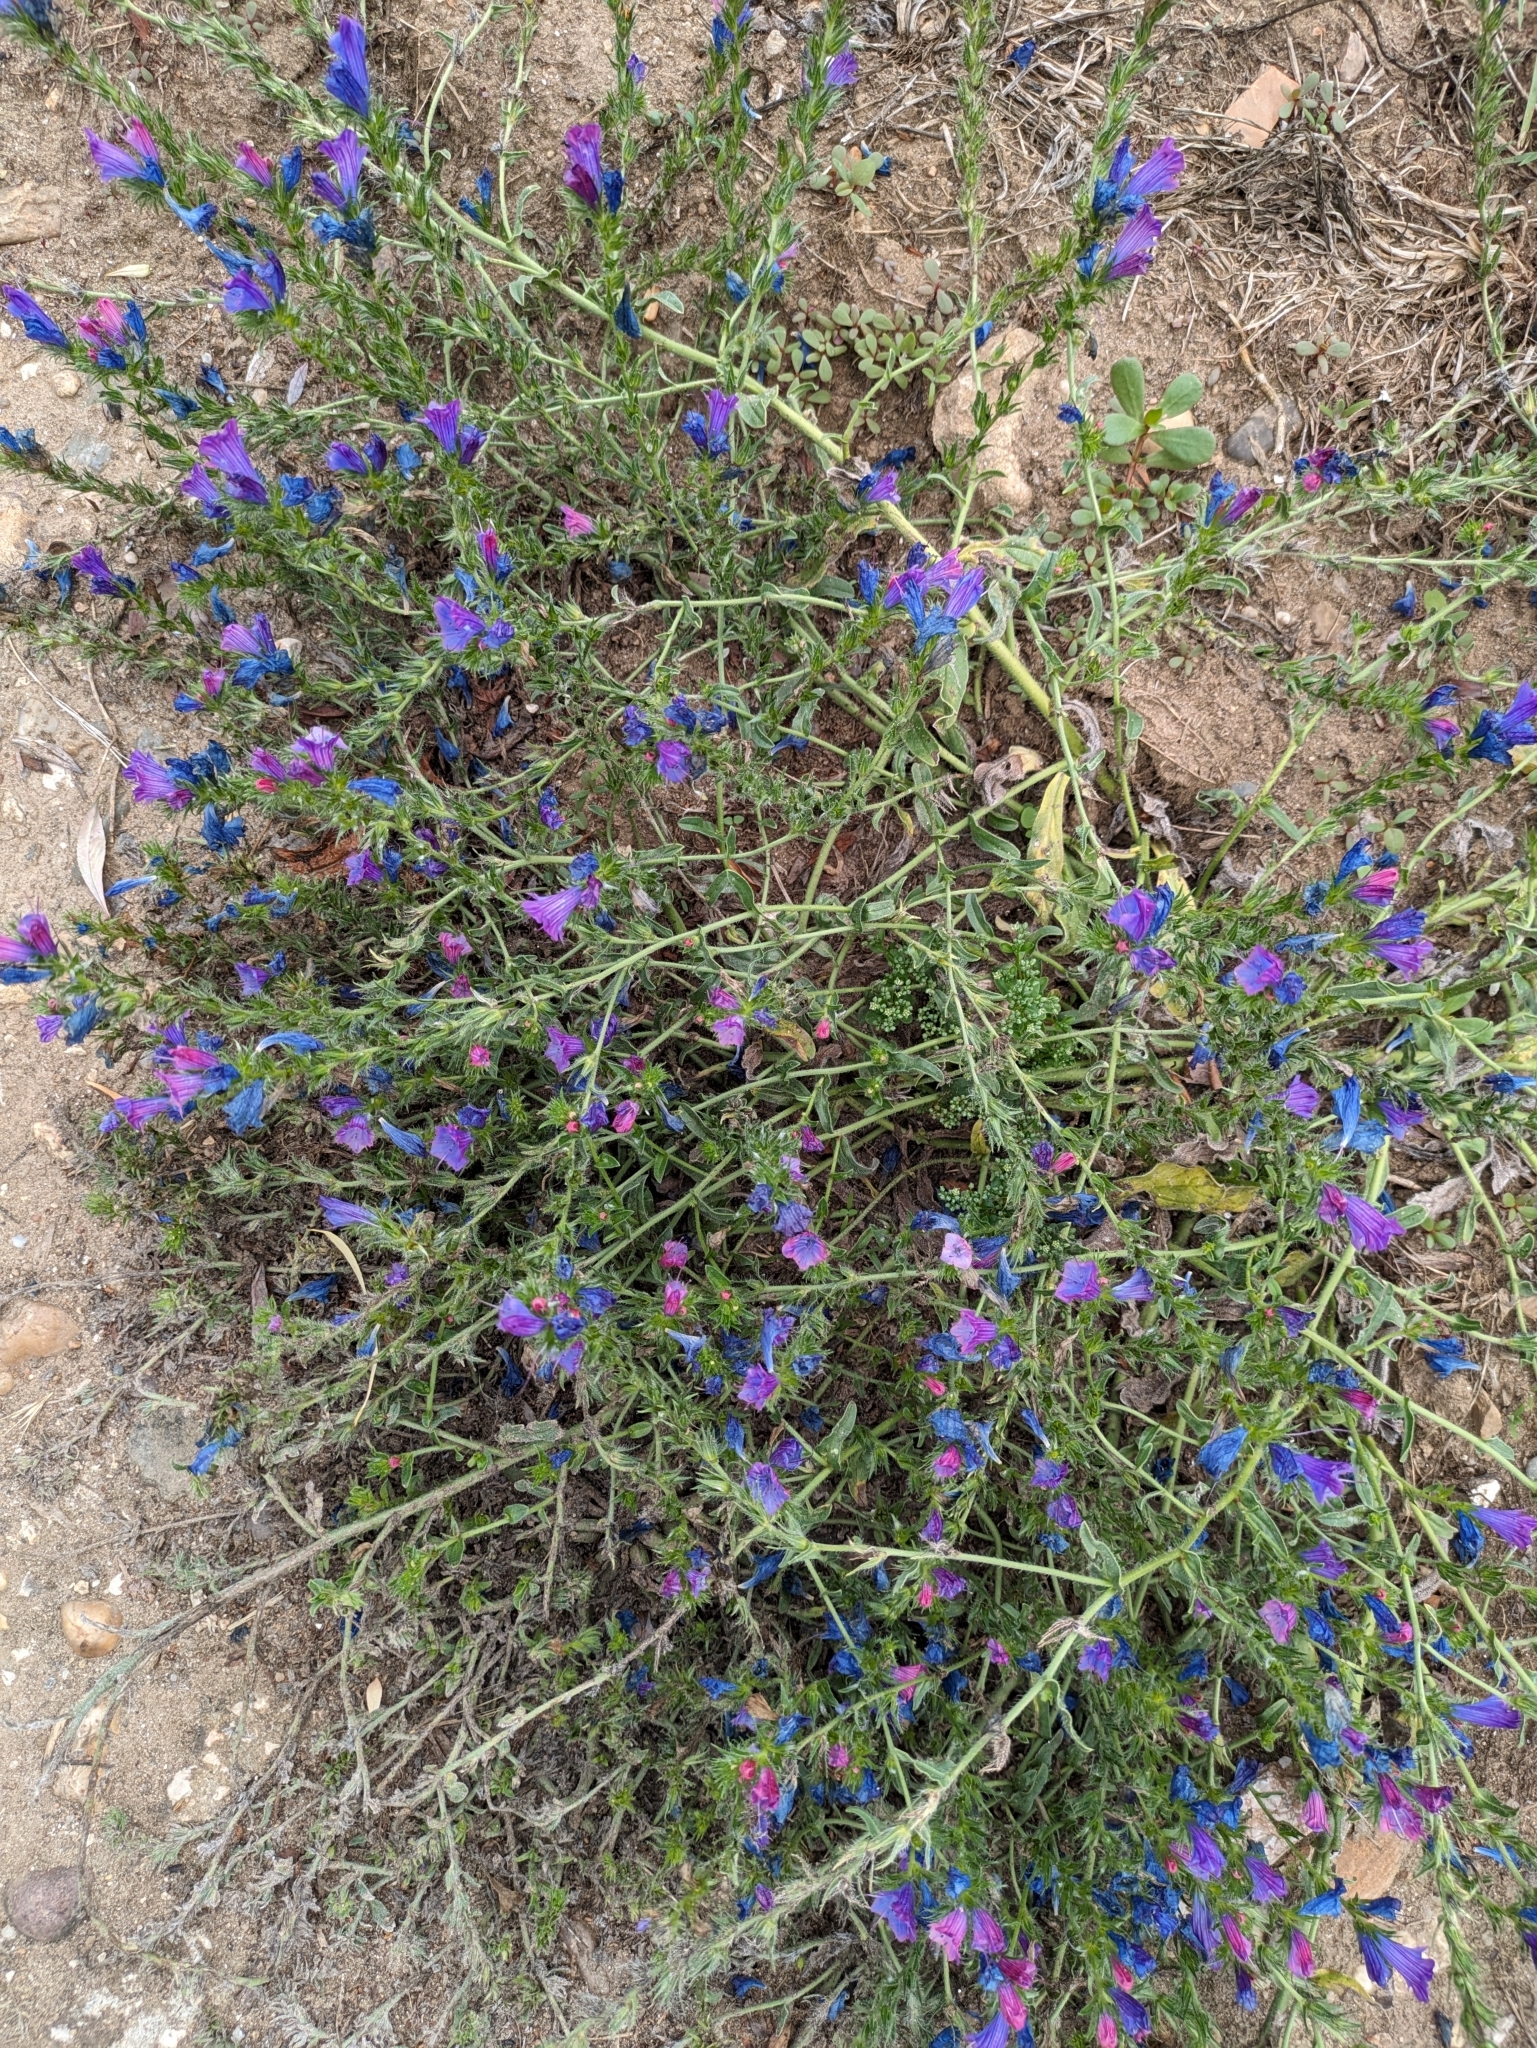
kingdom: Plantae
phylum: Tracheophyta
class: Magnoliopsida
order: Boraginales
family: Boraginaceae
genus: Echium
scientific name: Echium plantagineum
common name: Purple viper's-bugloss
